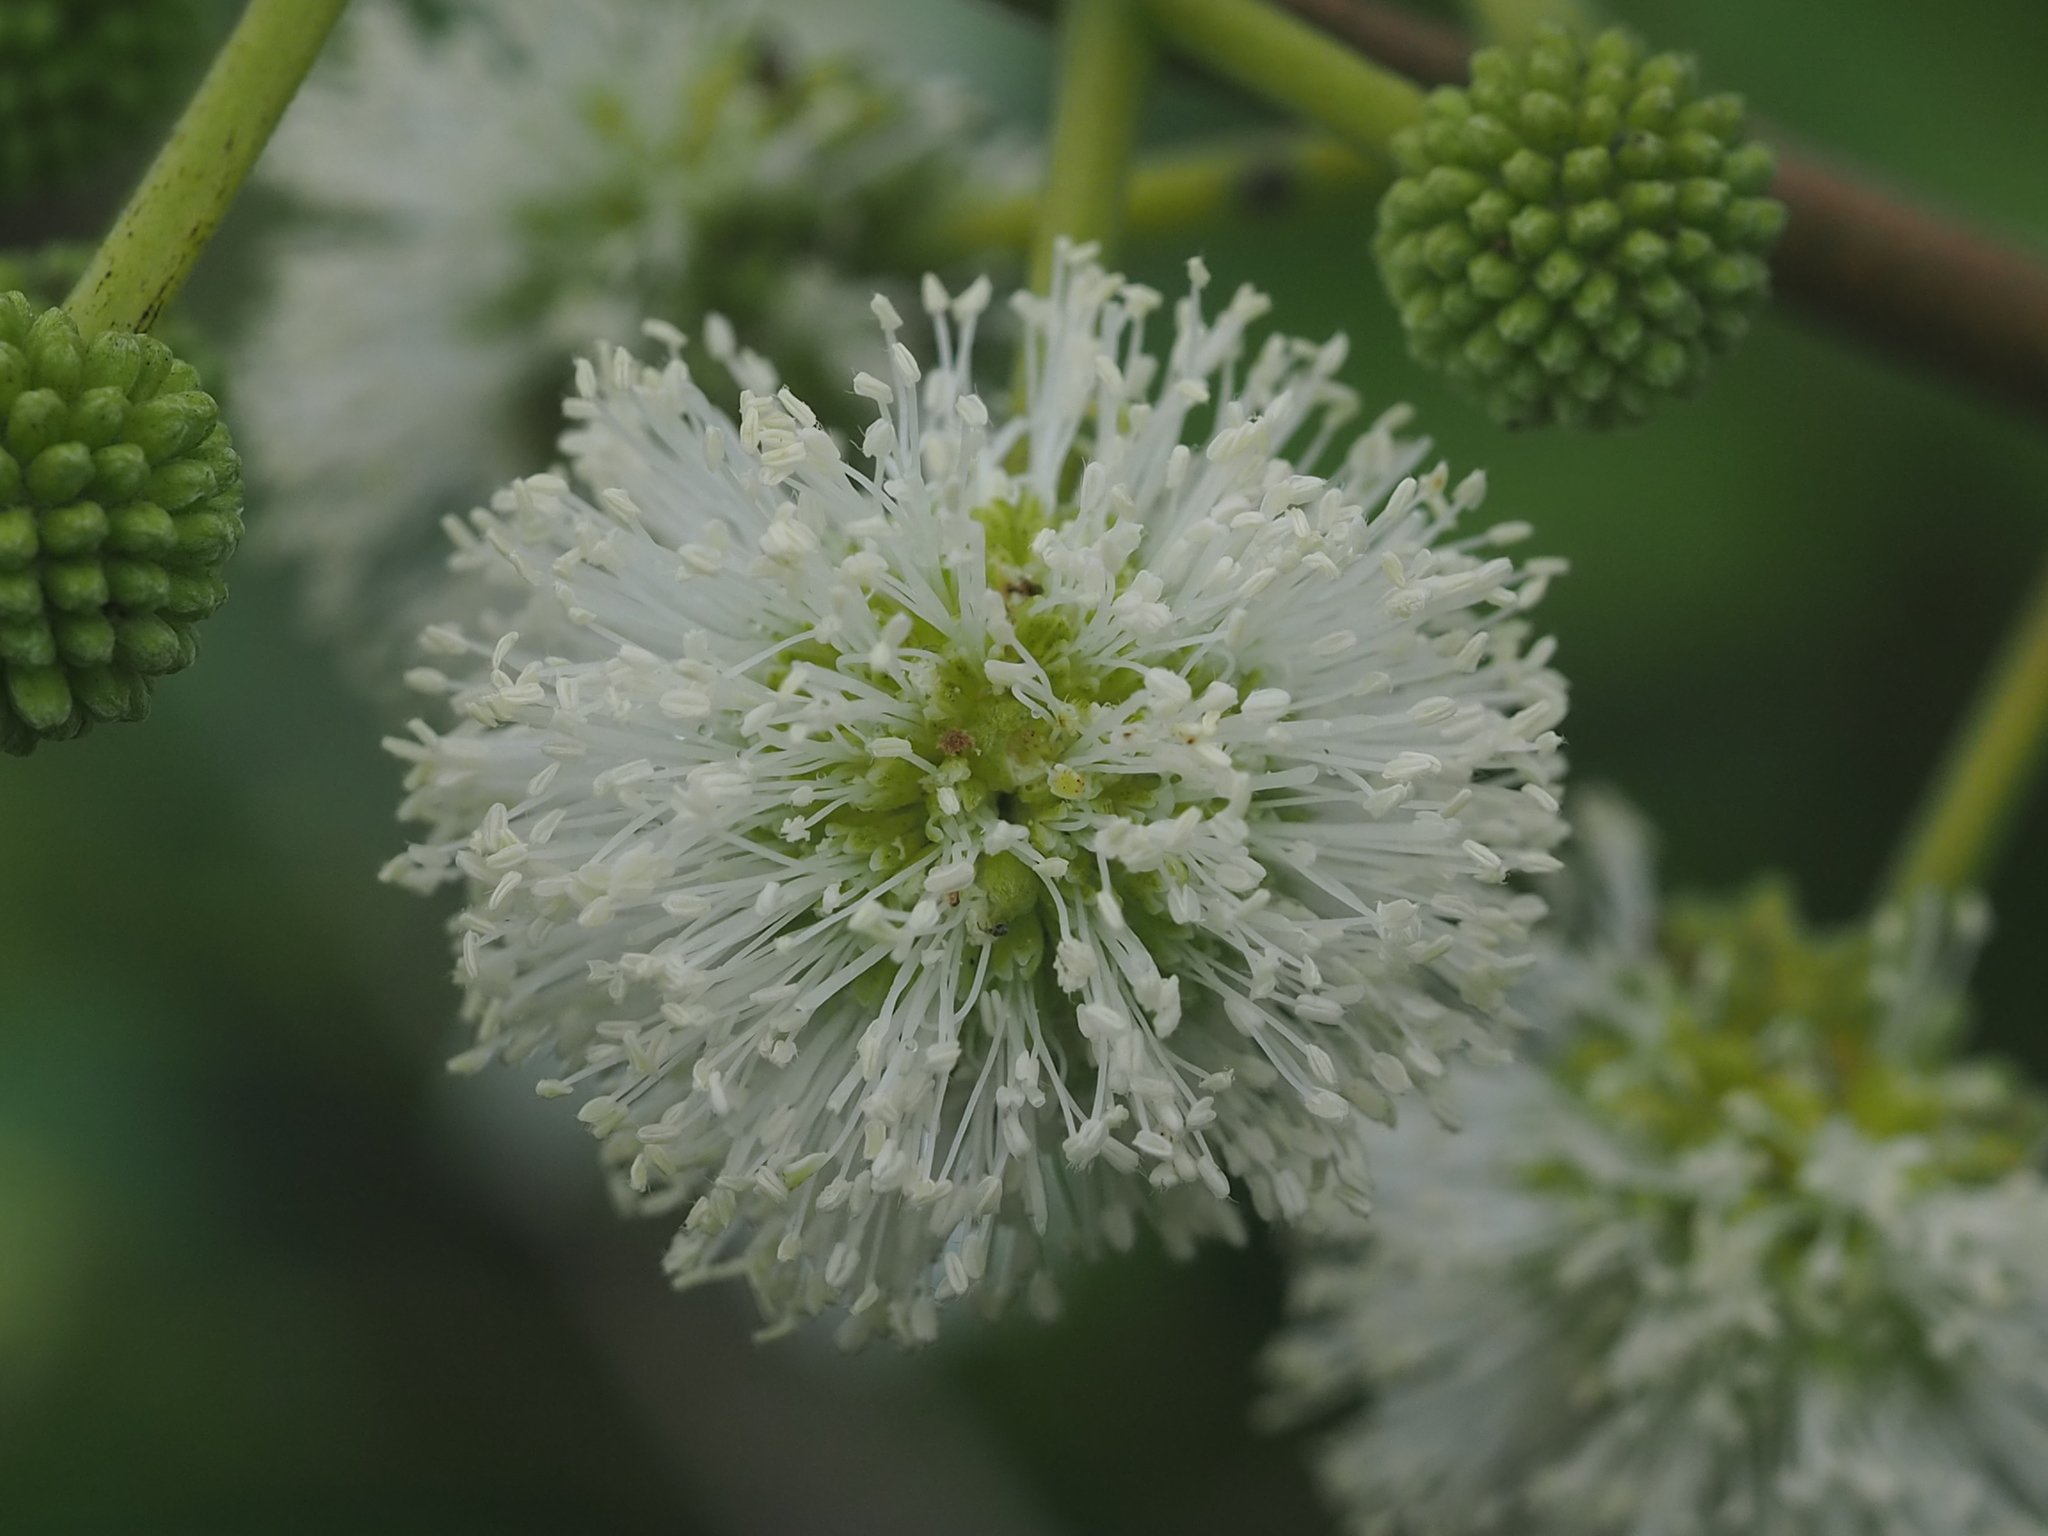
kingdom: Plantae
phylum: Tracheophyta
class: Magnoliopsida
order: Fabales
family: Fabaceae
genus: Leucaena
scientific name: Leucaena leucocephala
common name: White leadtree
